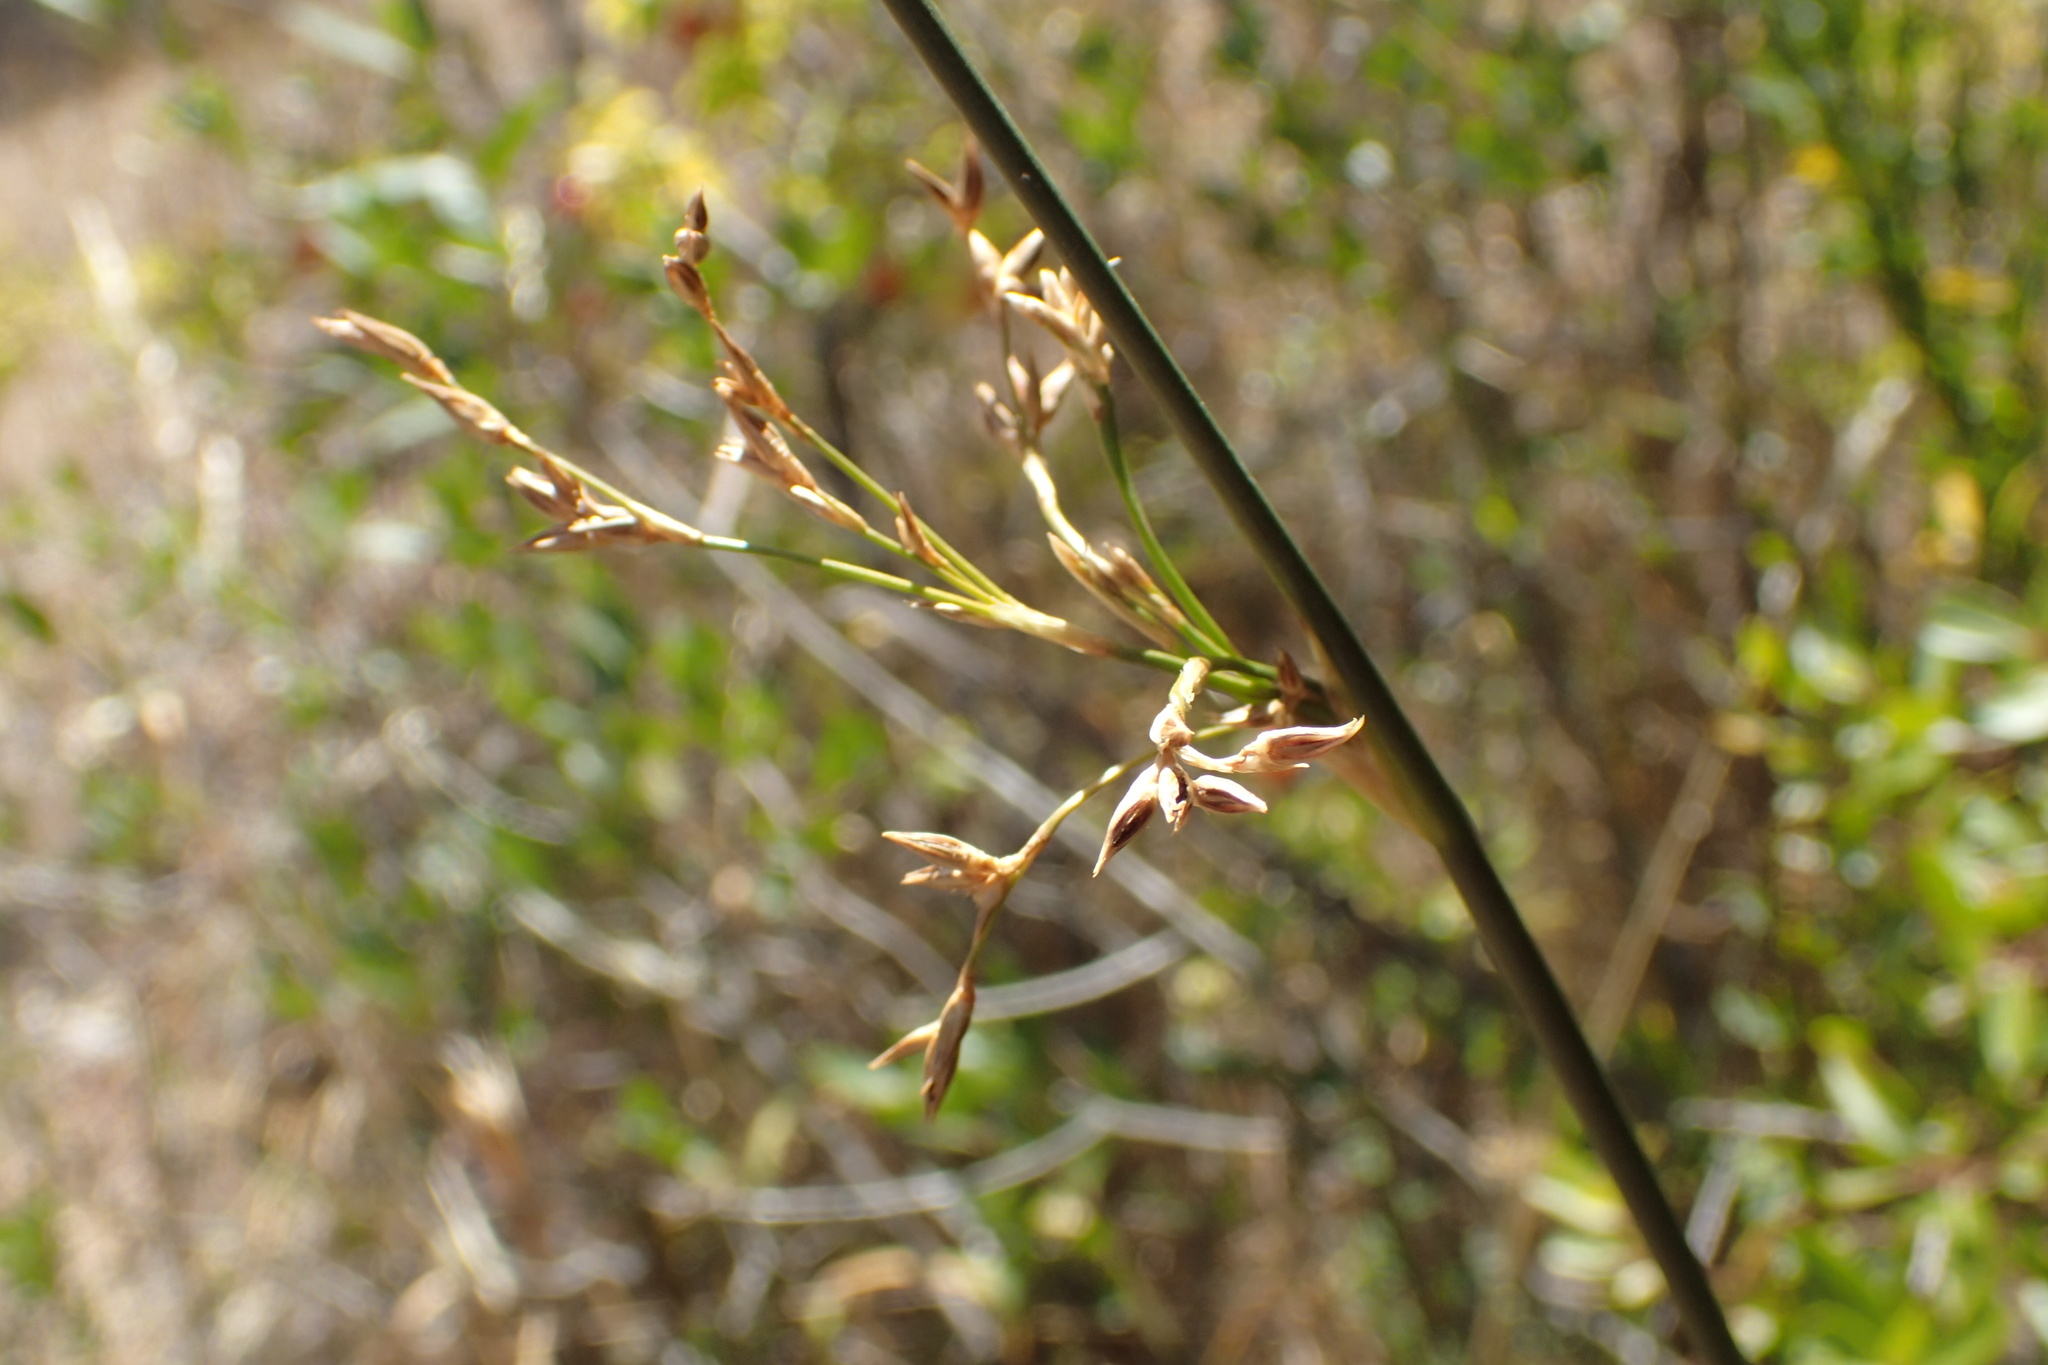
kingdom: Plantae
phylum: Tracheophyta
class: Liliopsida
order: Poales
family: Juncaceae
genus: Juncus
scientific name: Juncus balticus
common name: Baltic rush
